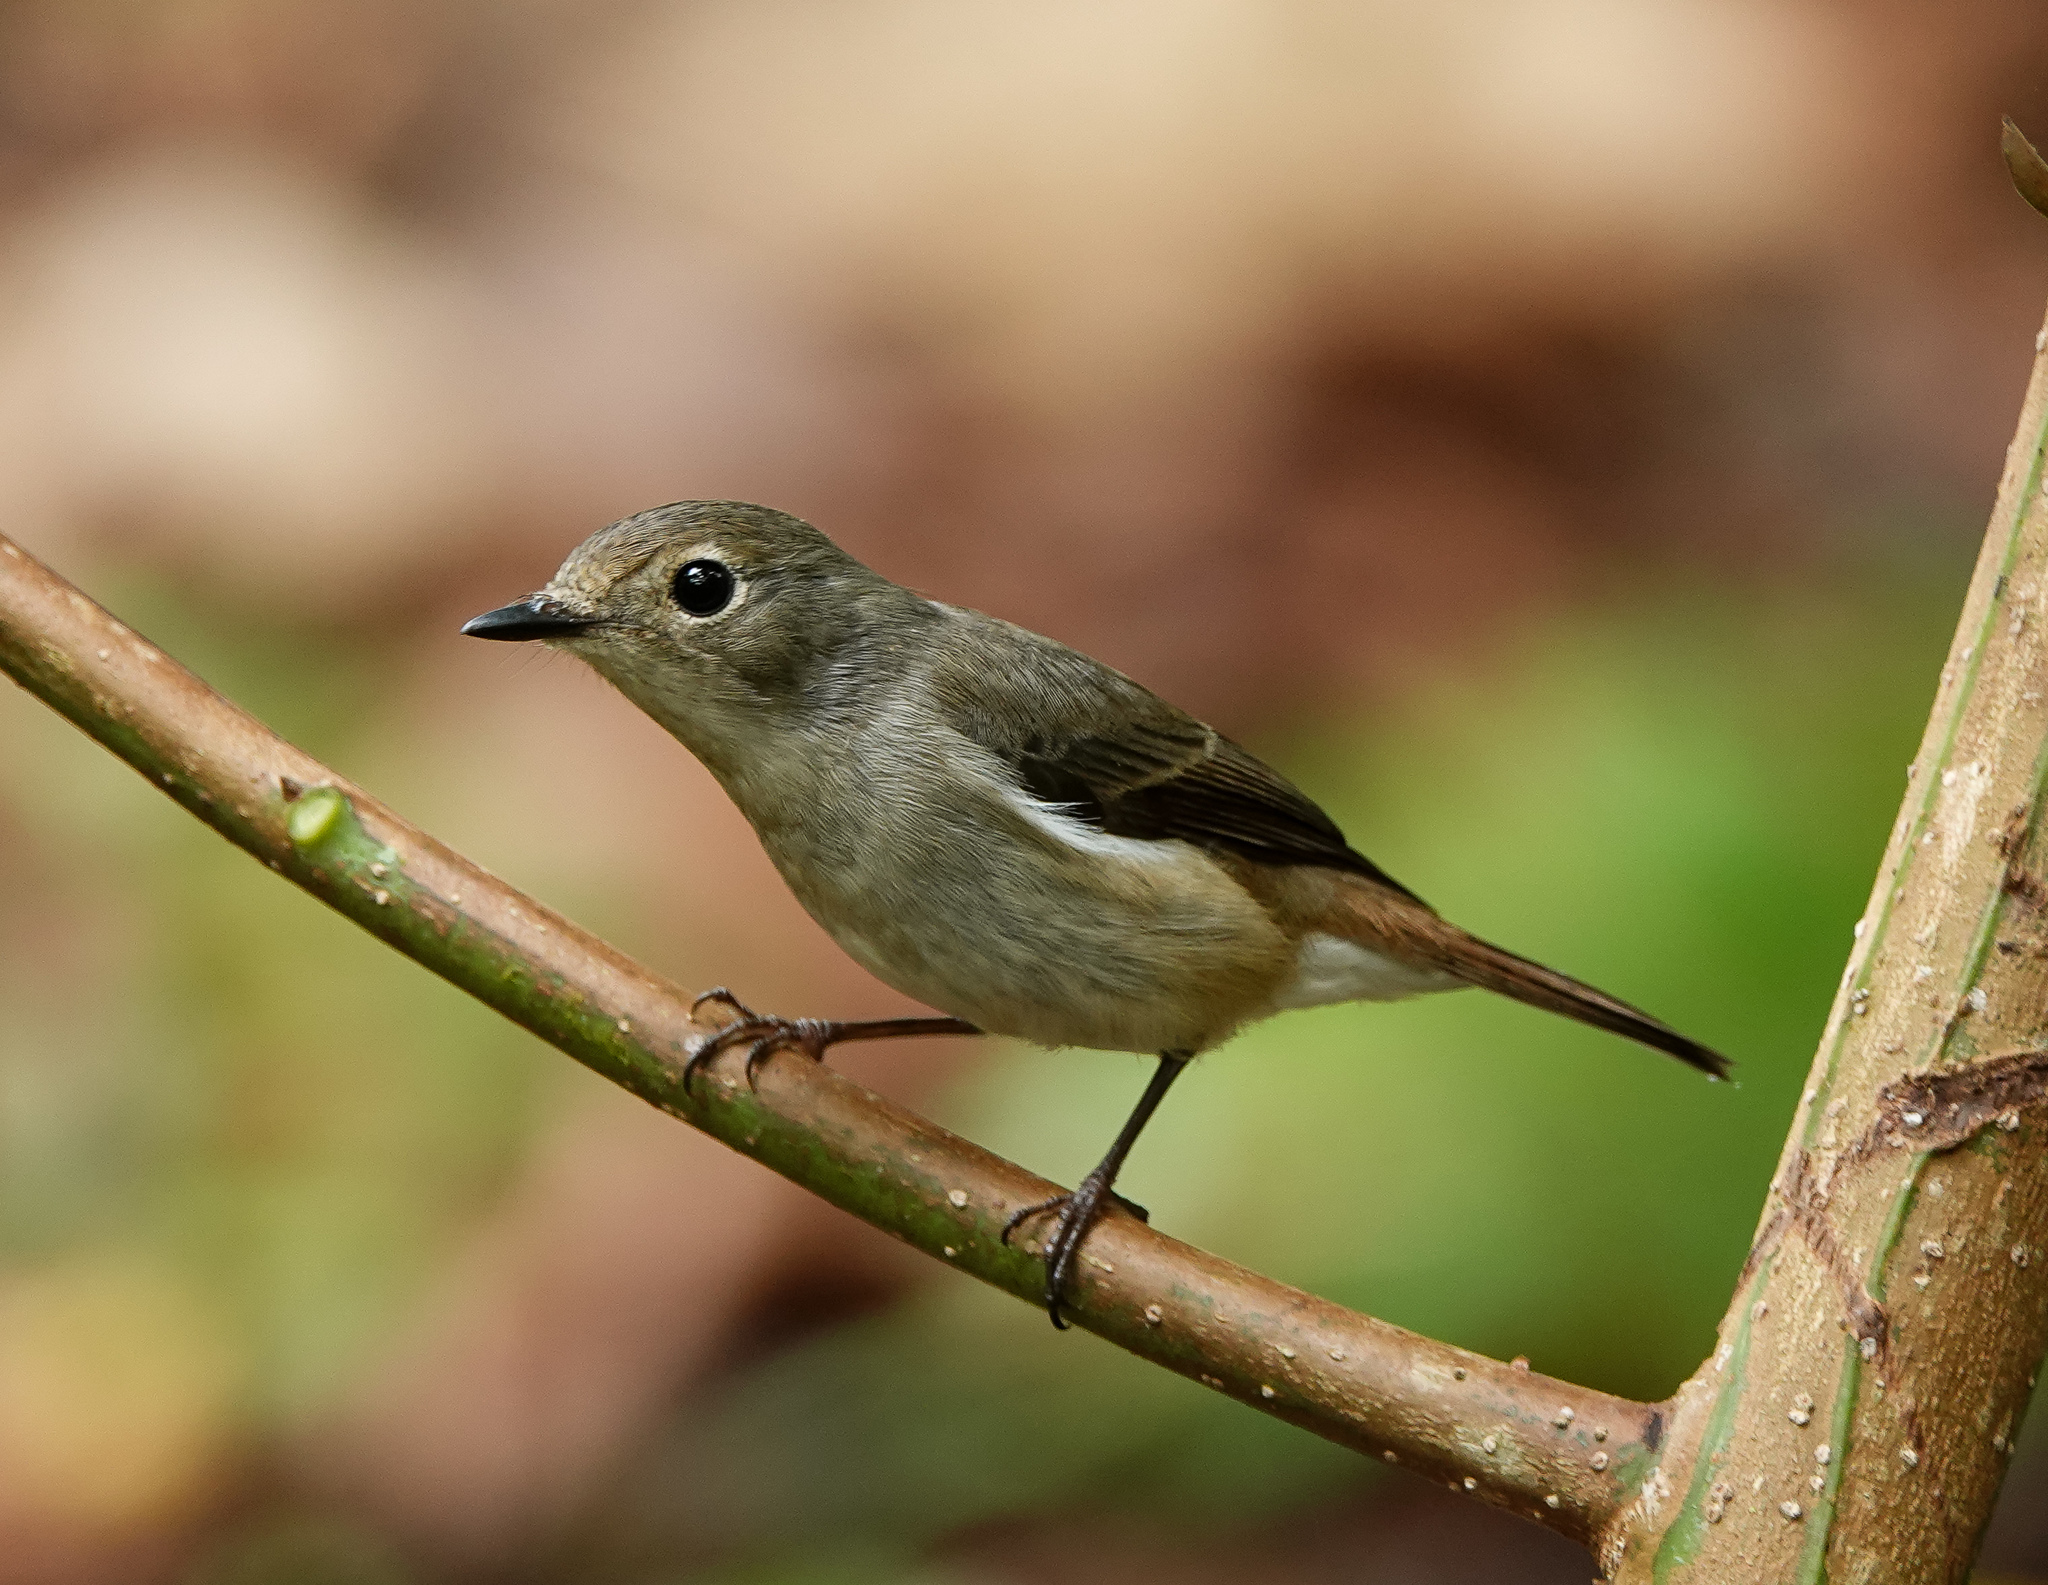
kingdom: Animalia
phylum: Chordata
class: Aves
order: Passeriformes
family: Muscicapidae
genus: Ficedula
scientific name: Ficedula westermanni
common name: Little pied flycatcher
